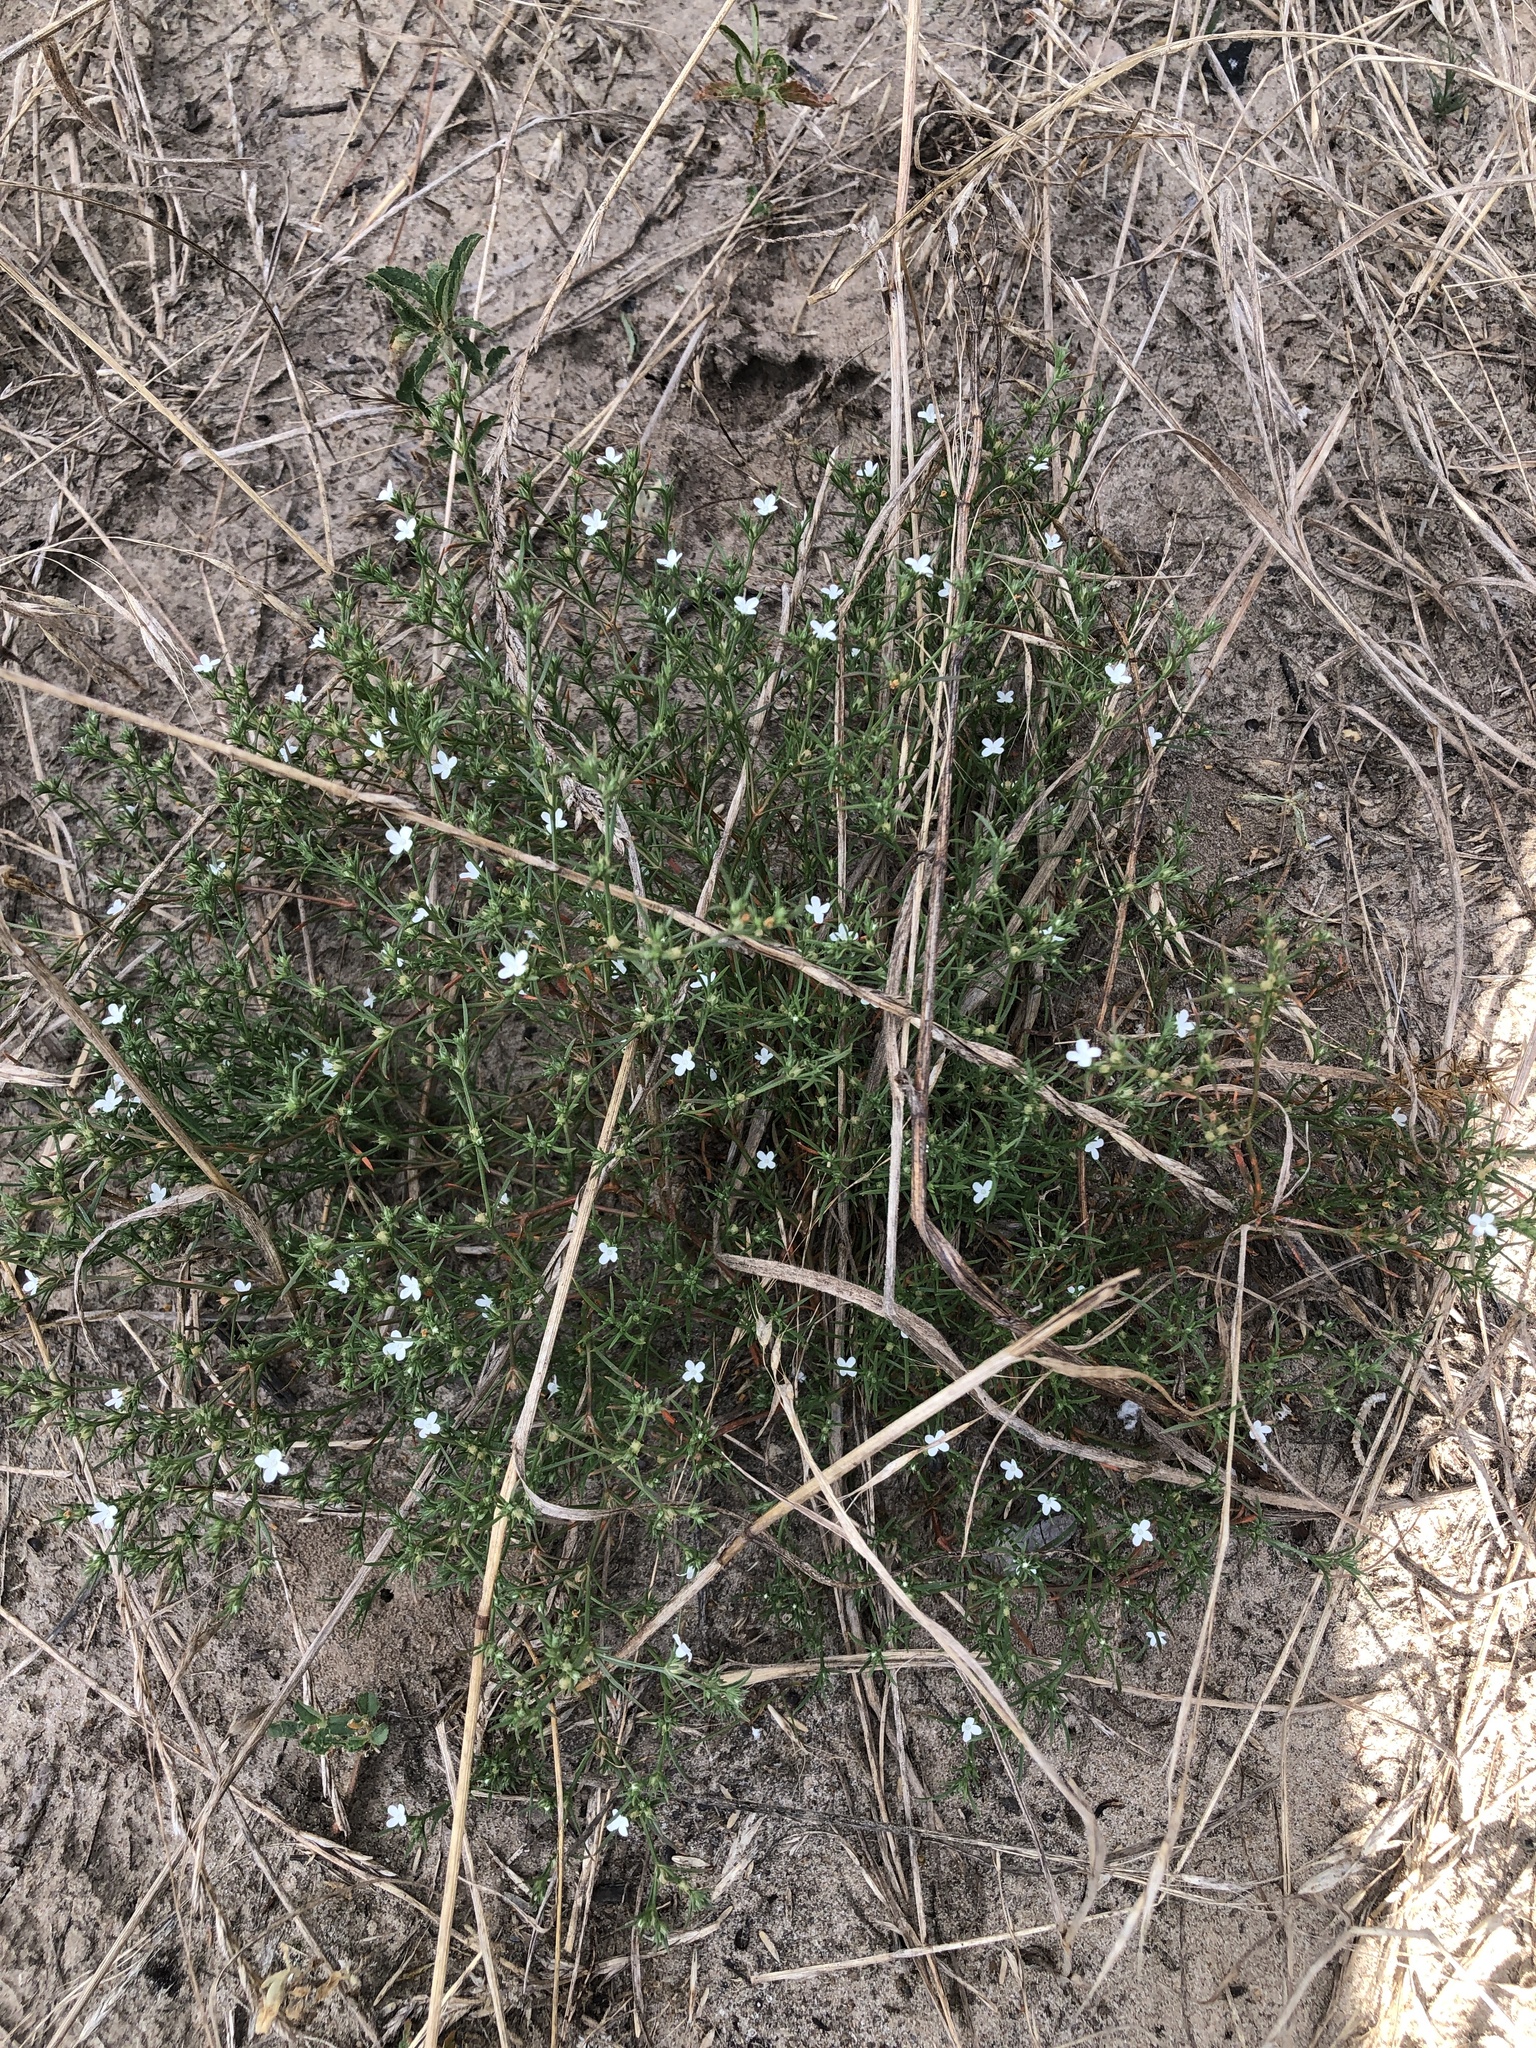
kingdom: Plantae
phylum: Tracheophyta
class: Magnoliopsida
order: Lamiales
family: Tetrachondraceae
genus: Polypremum
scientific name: Polypremum procumbens
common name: Juniper-leaf
